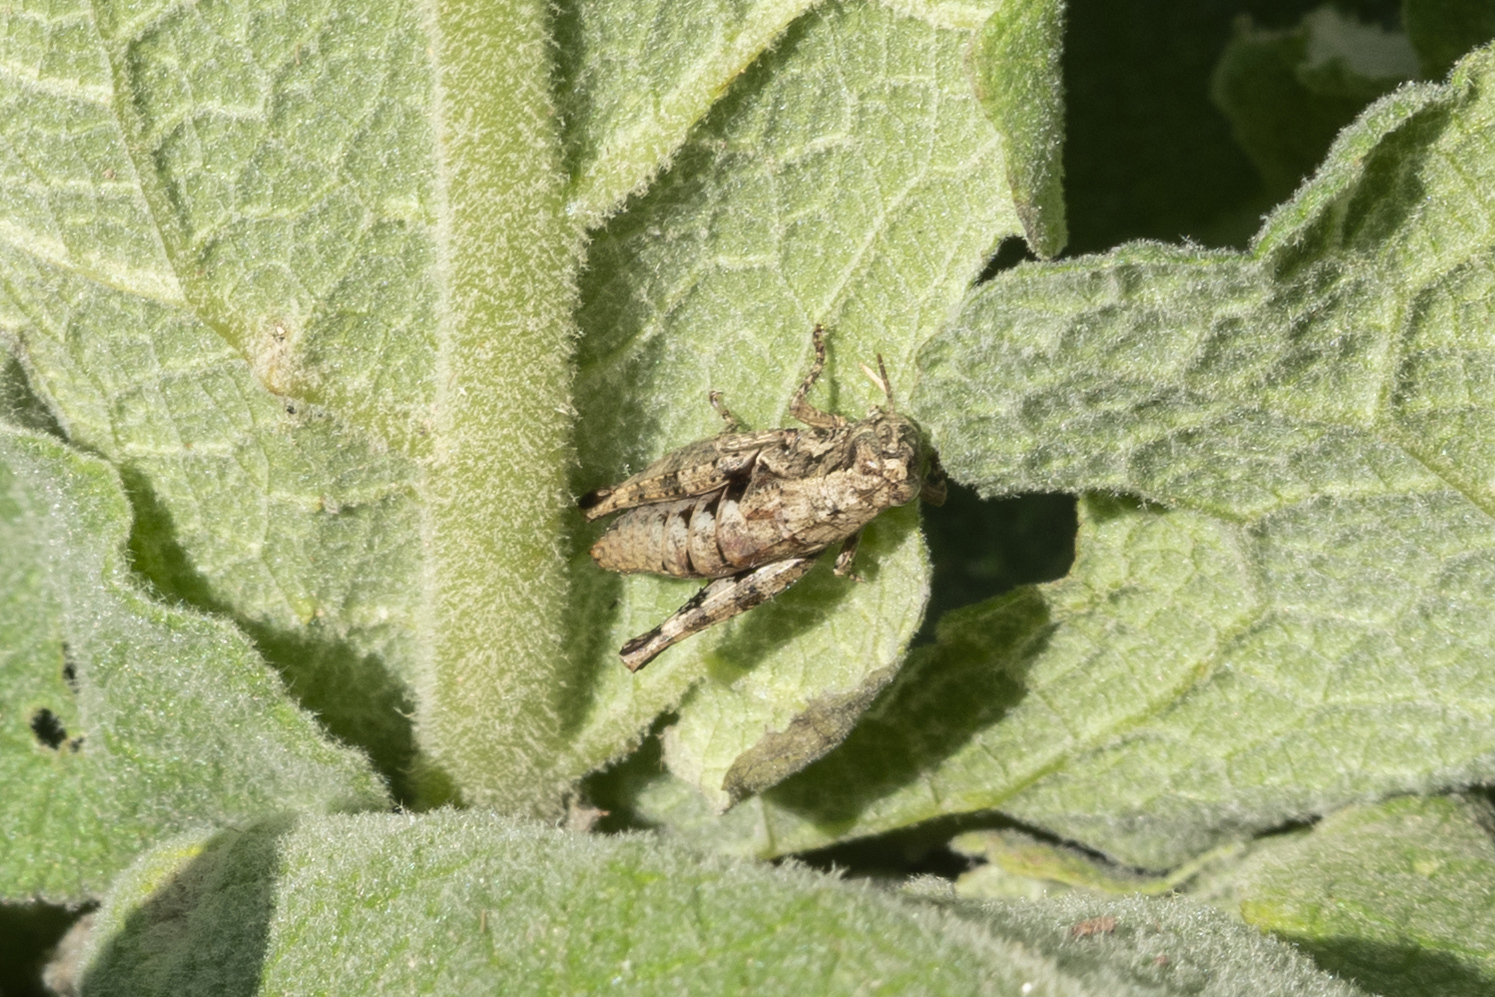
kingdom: Animalia
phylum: Arthropoda
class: Insecta
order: Orthoptera
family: Acrididae
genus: Pezotettix
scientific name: Pezotettix lagoi
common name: Rhodes maquis grasshopper
